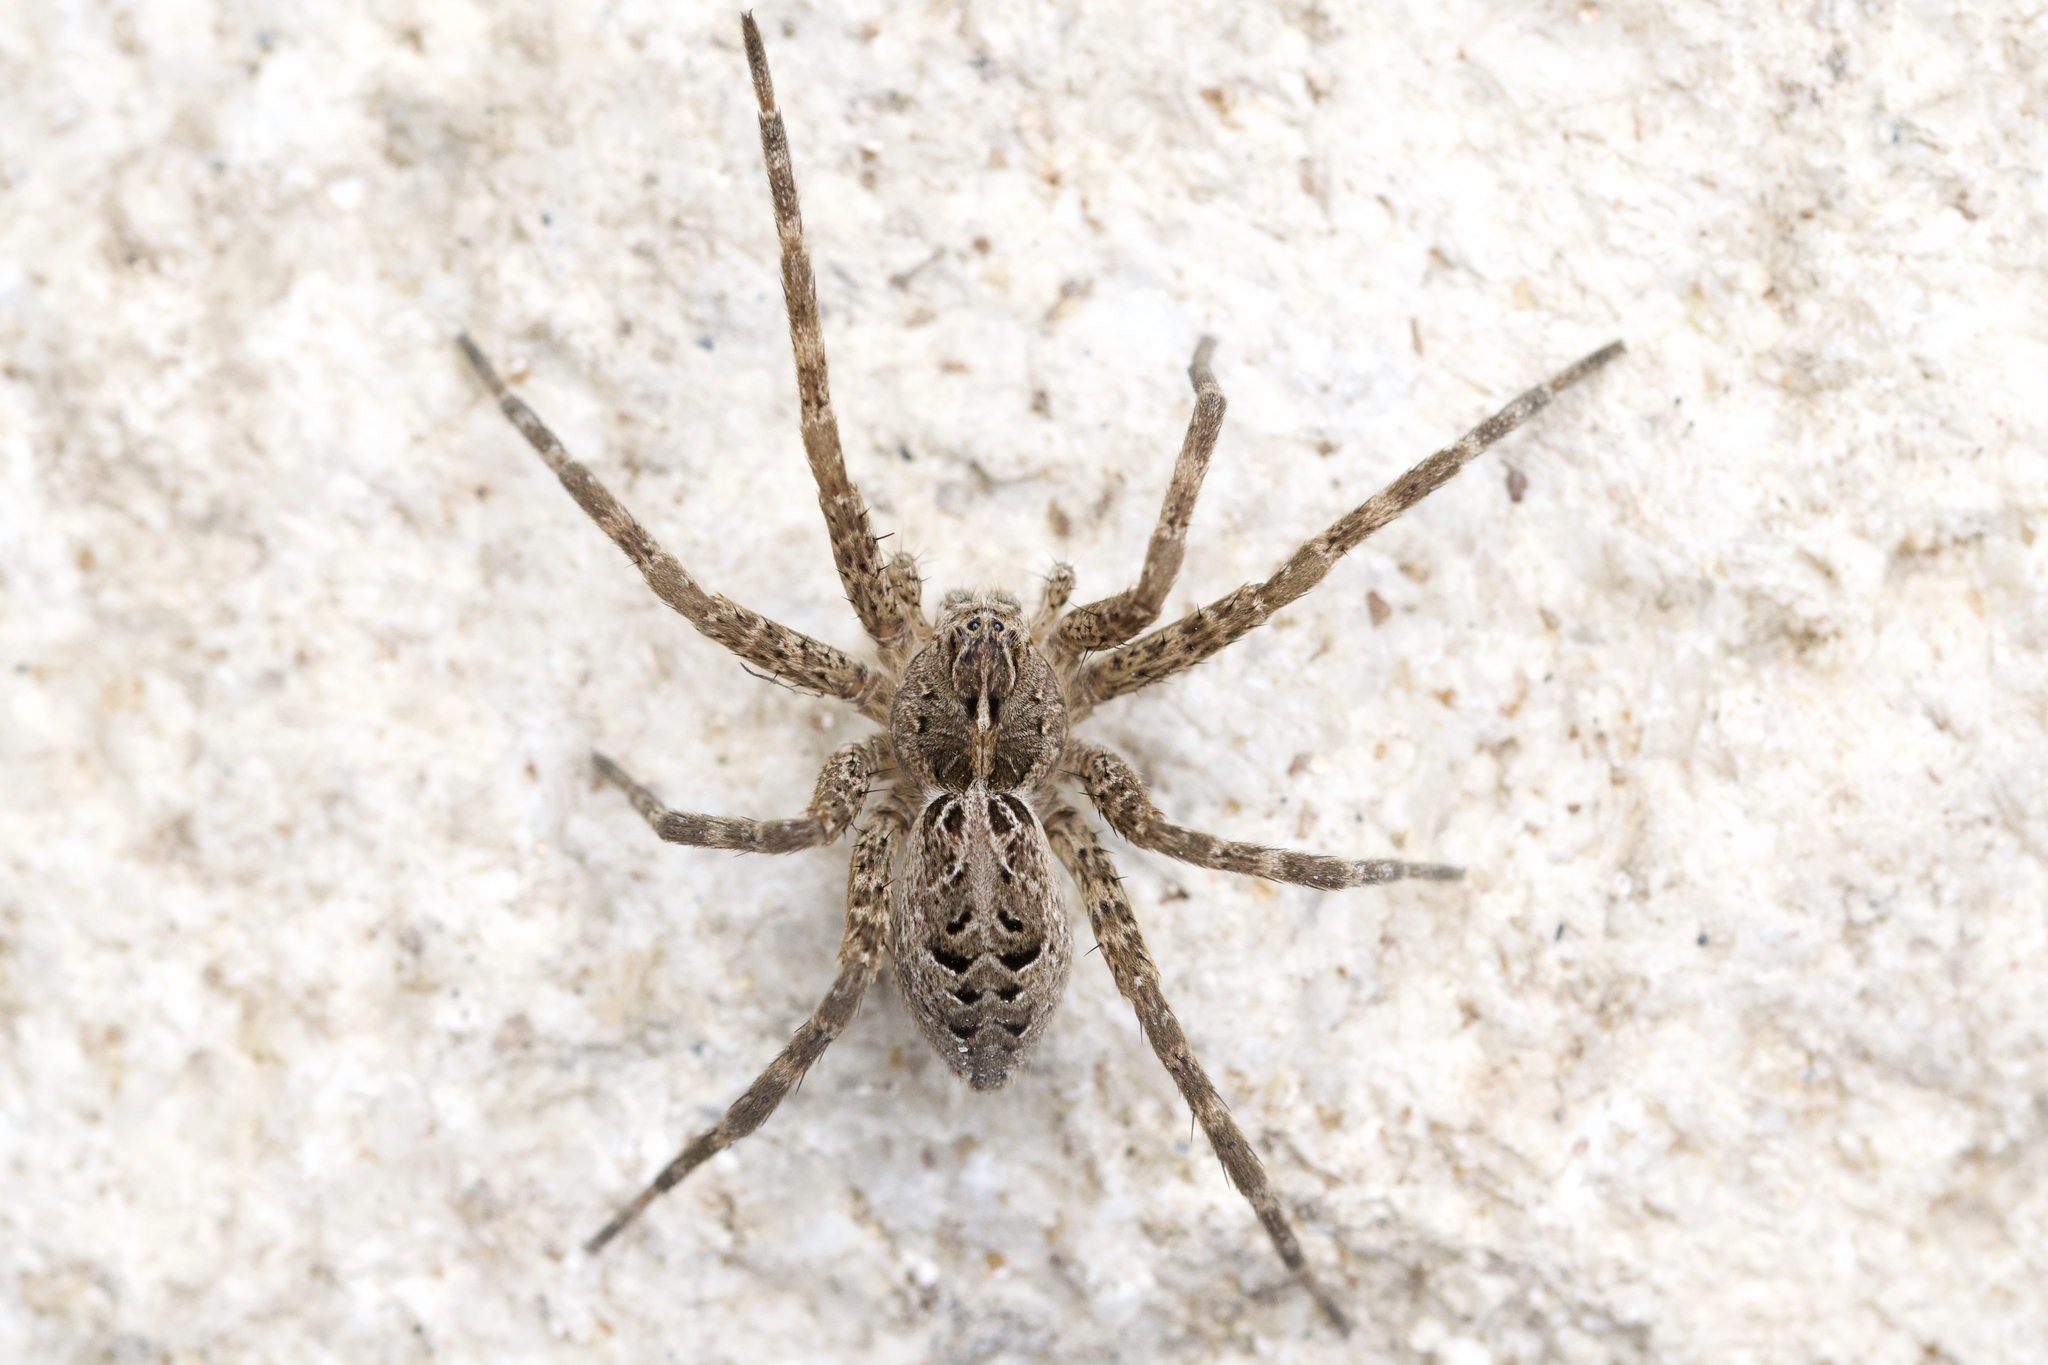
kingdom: Animalia
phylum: Arthropoda
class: Arachnida
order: Araneae
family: Pisauridae
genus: Dolomedes
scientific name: Dolomedes scriptus
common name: Striped fishing spider
